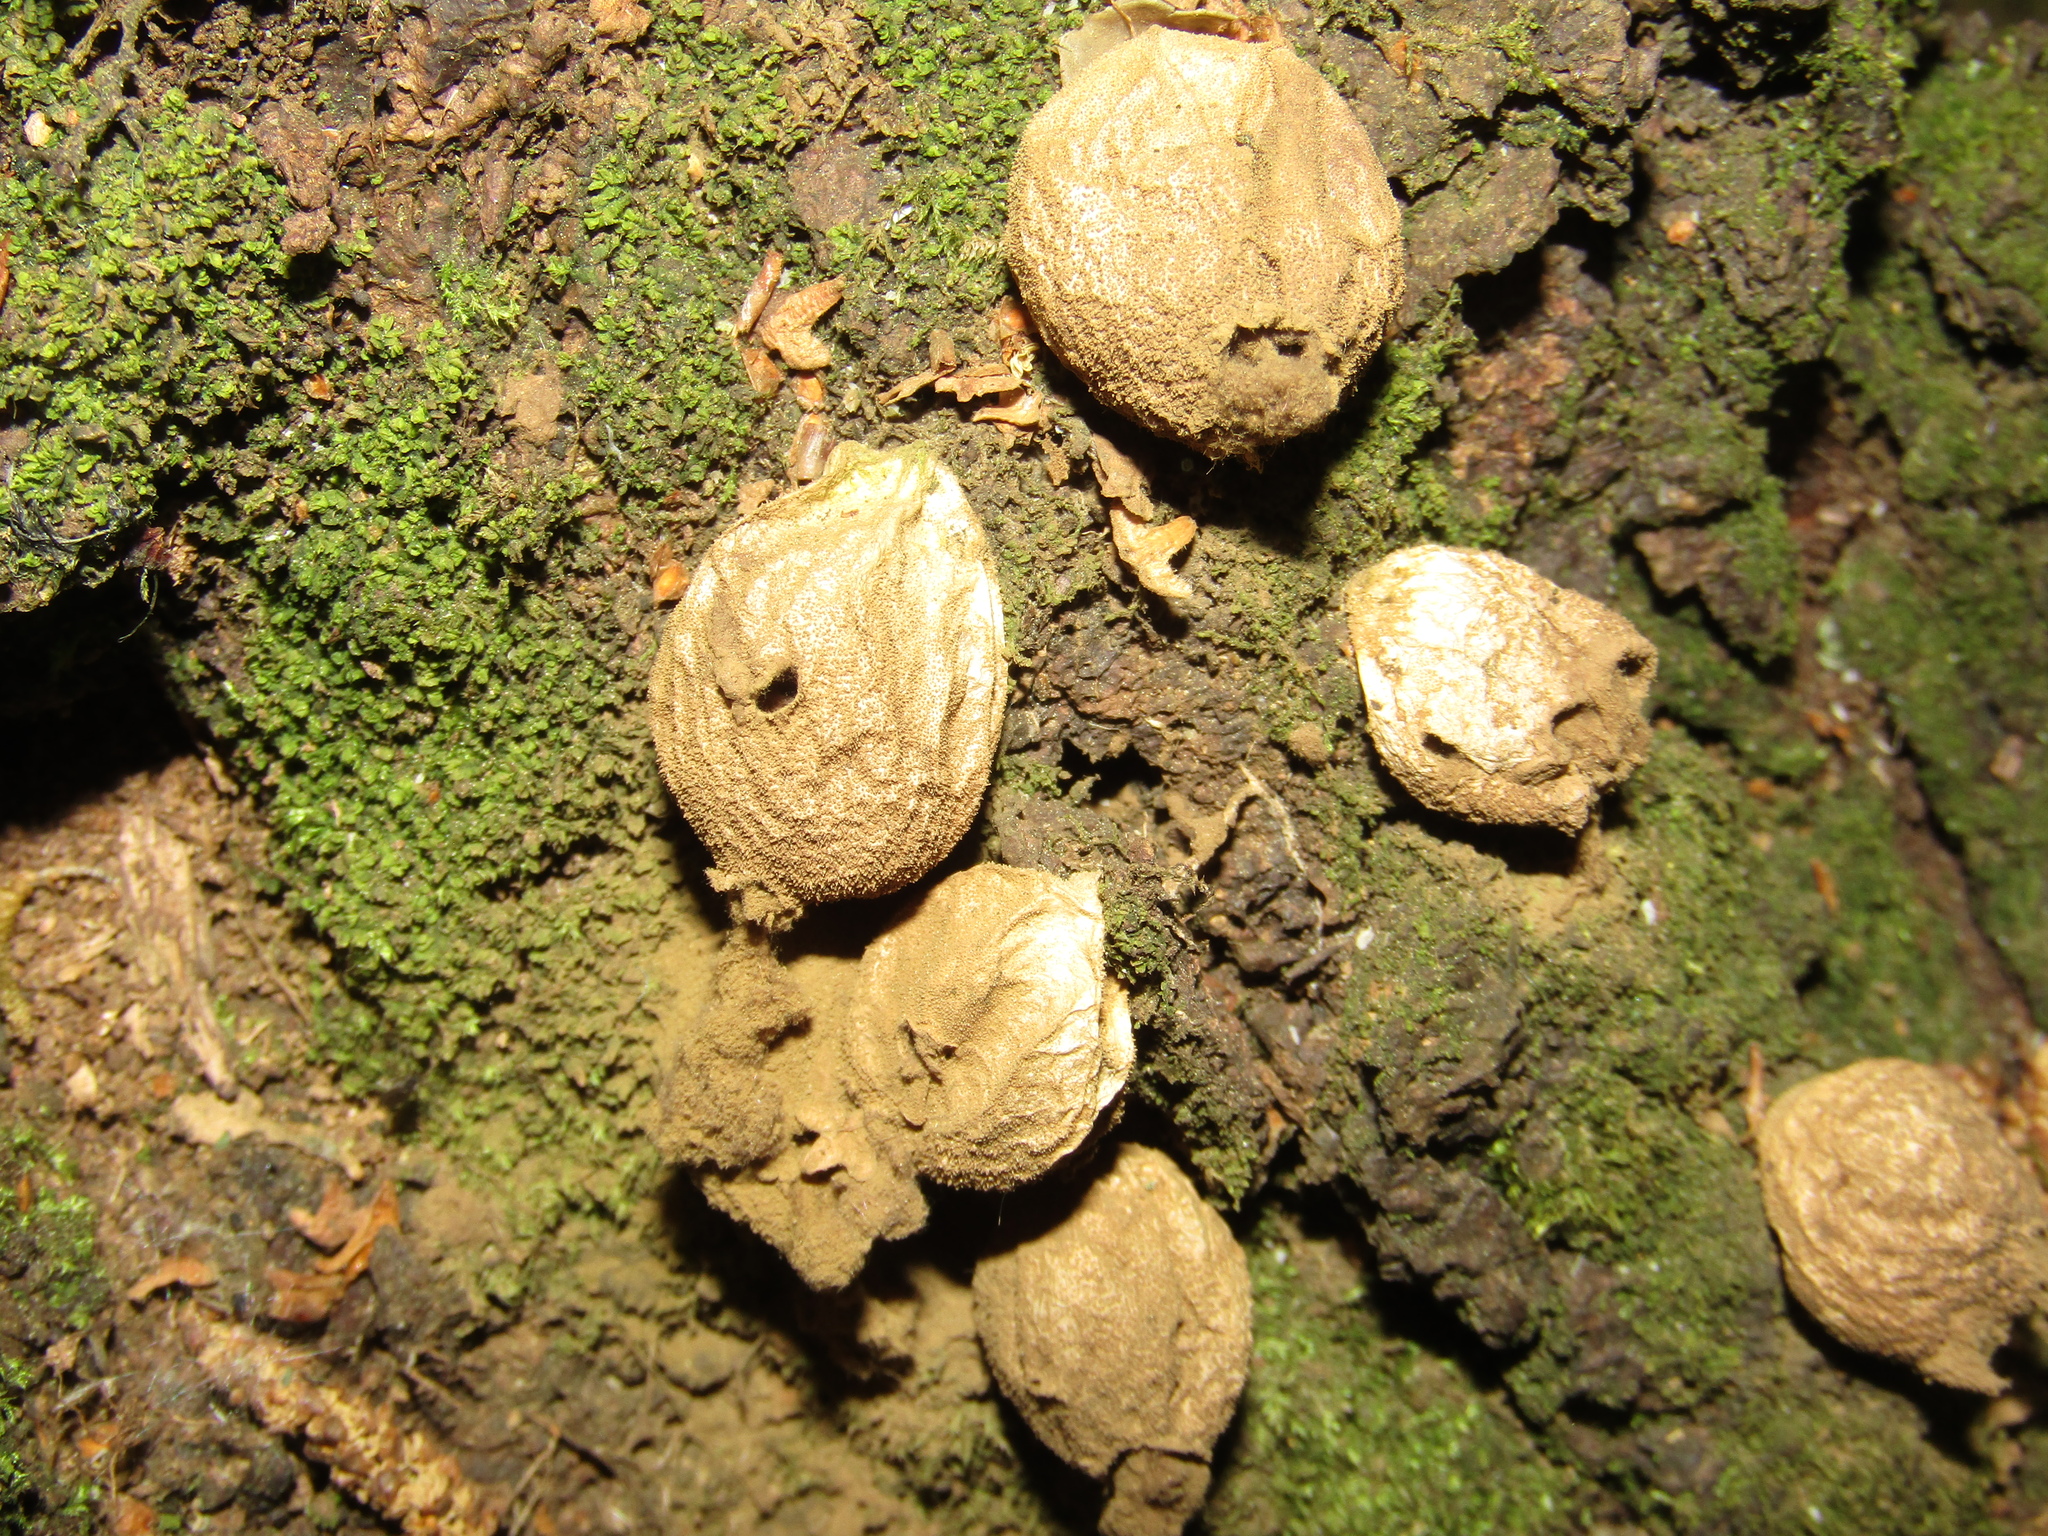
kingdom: Fungi
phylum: Basidiomycota
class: Agaricomycetes
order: Agaricales
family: Lycoperdaceae
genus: Apioperdon
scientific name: Apioperdon pyriforme
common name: Pear-shaped puffball
